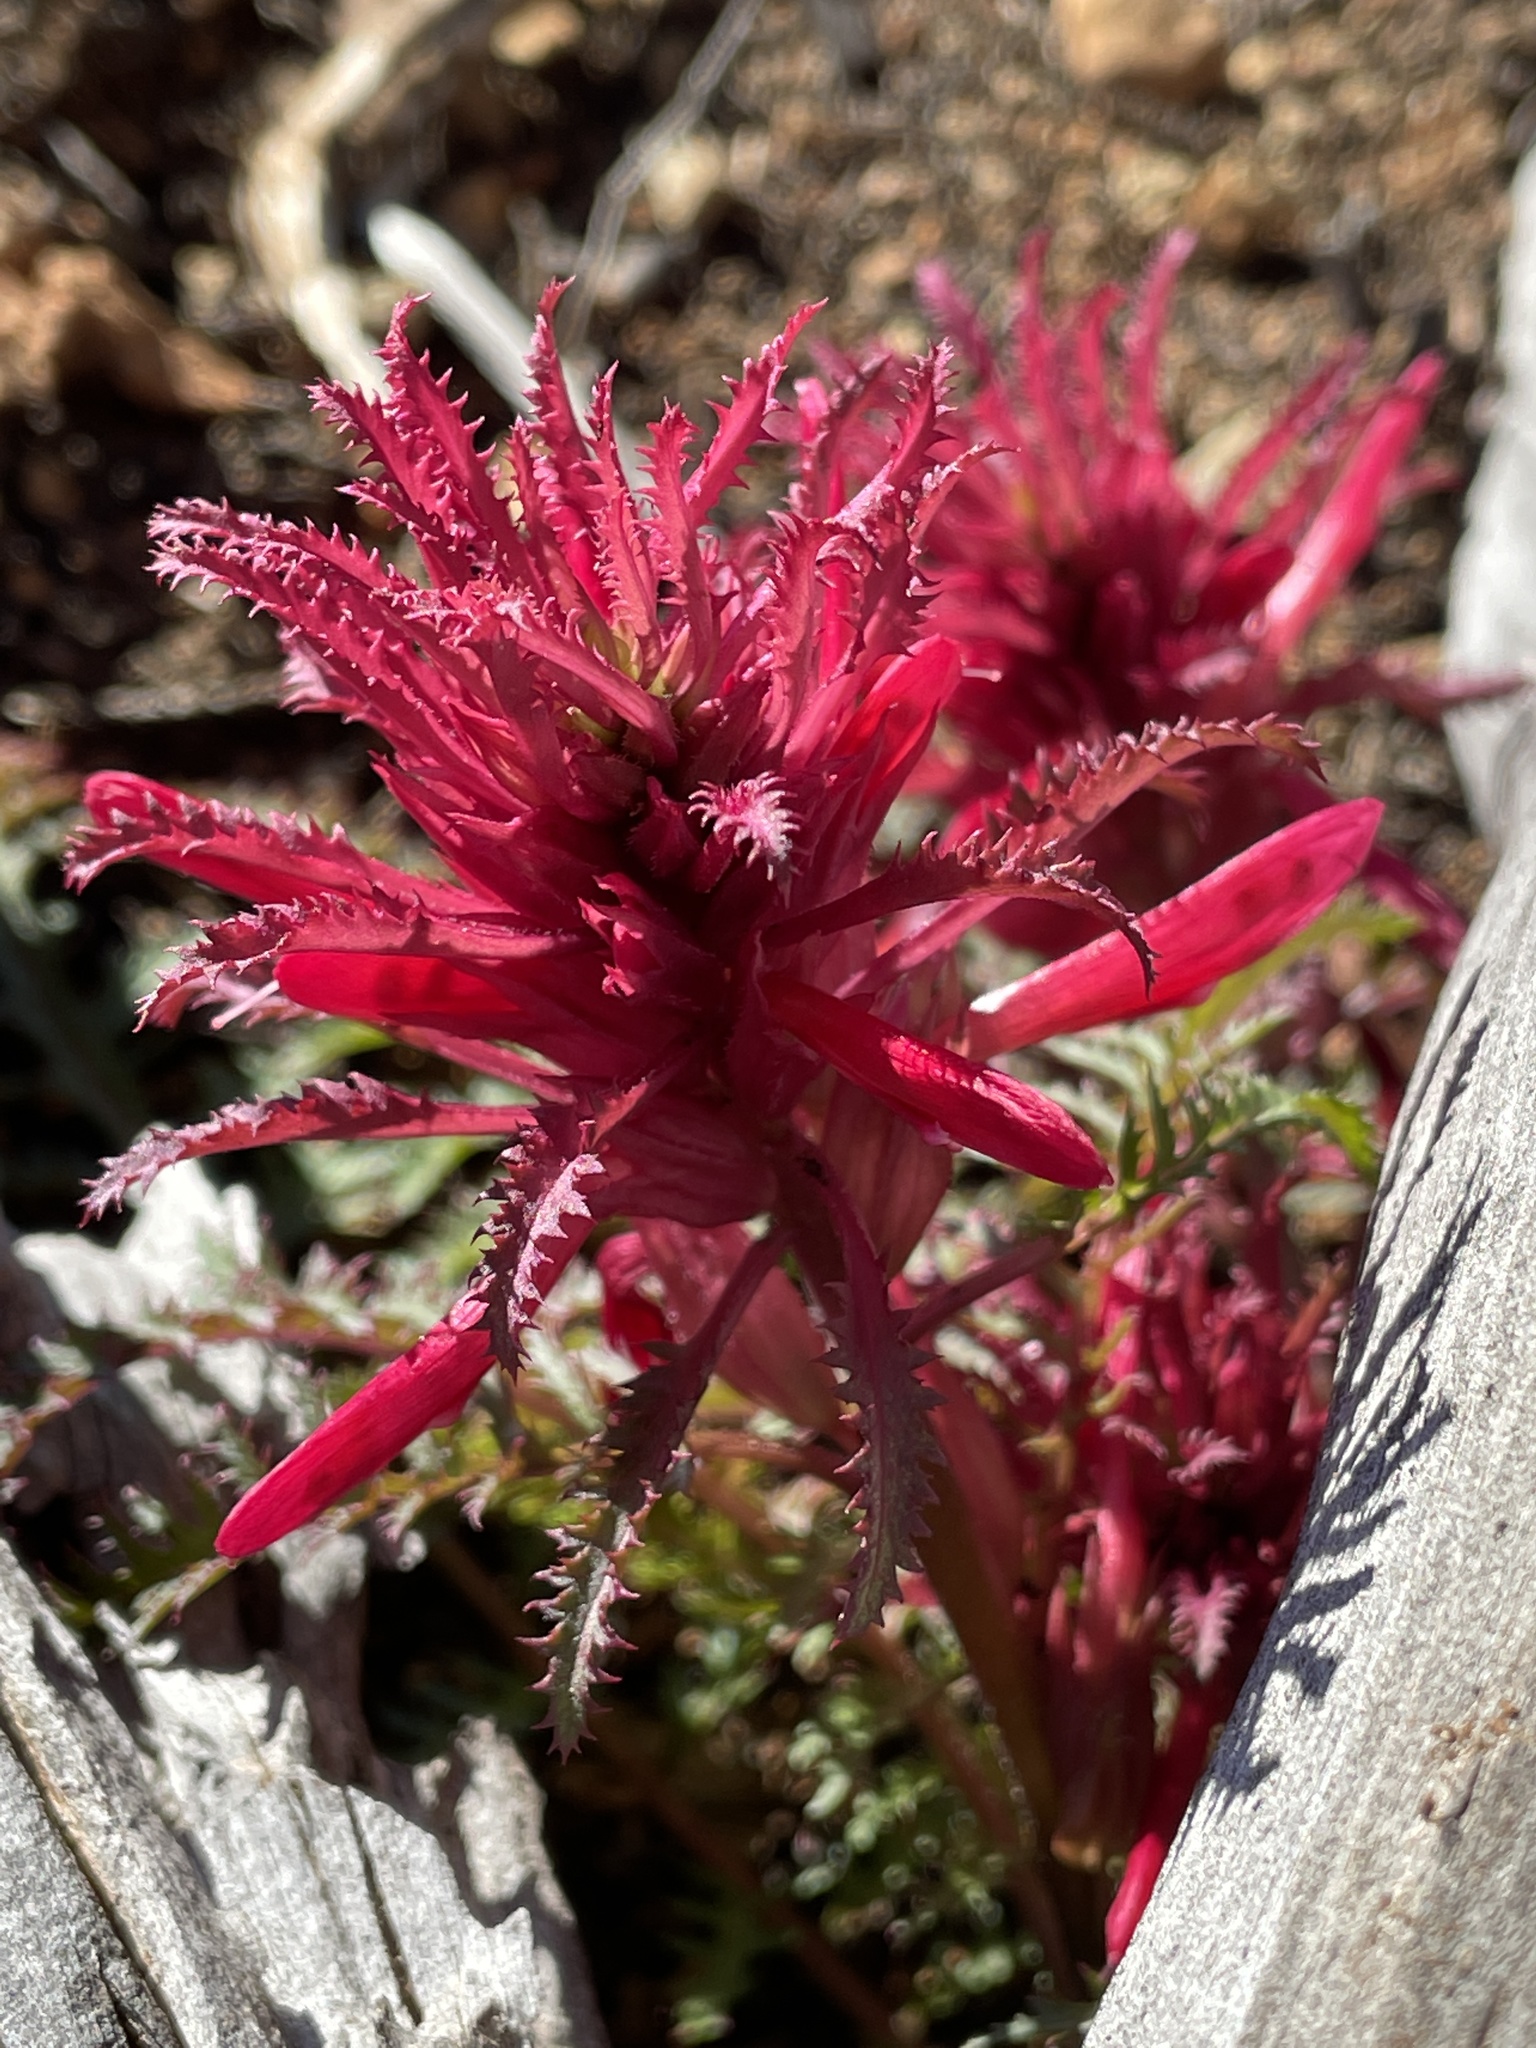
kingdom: Plantae
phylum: Tracheophyta
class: Magnoliopsida
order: Lamiales
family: Orobanchaceae
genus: Pedicularis
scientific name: Pedicularis densiflora
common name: Indian warrior
